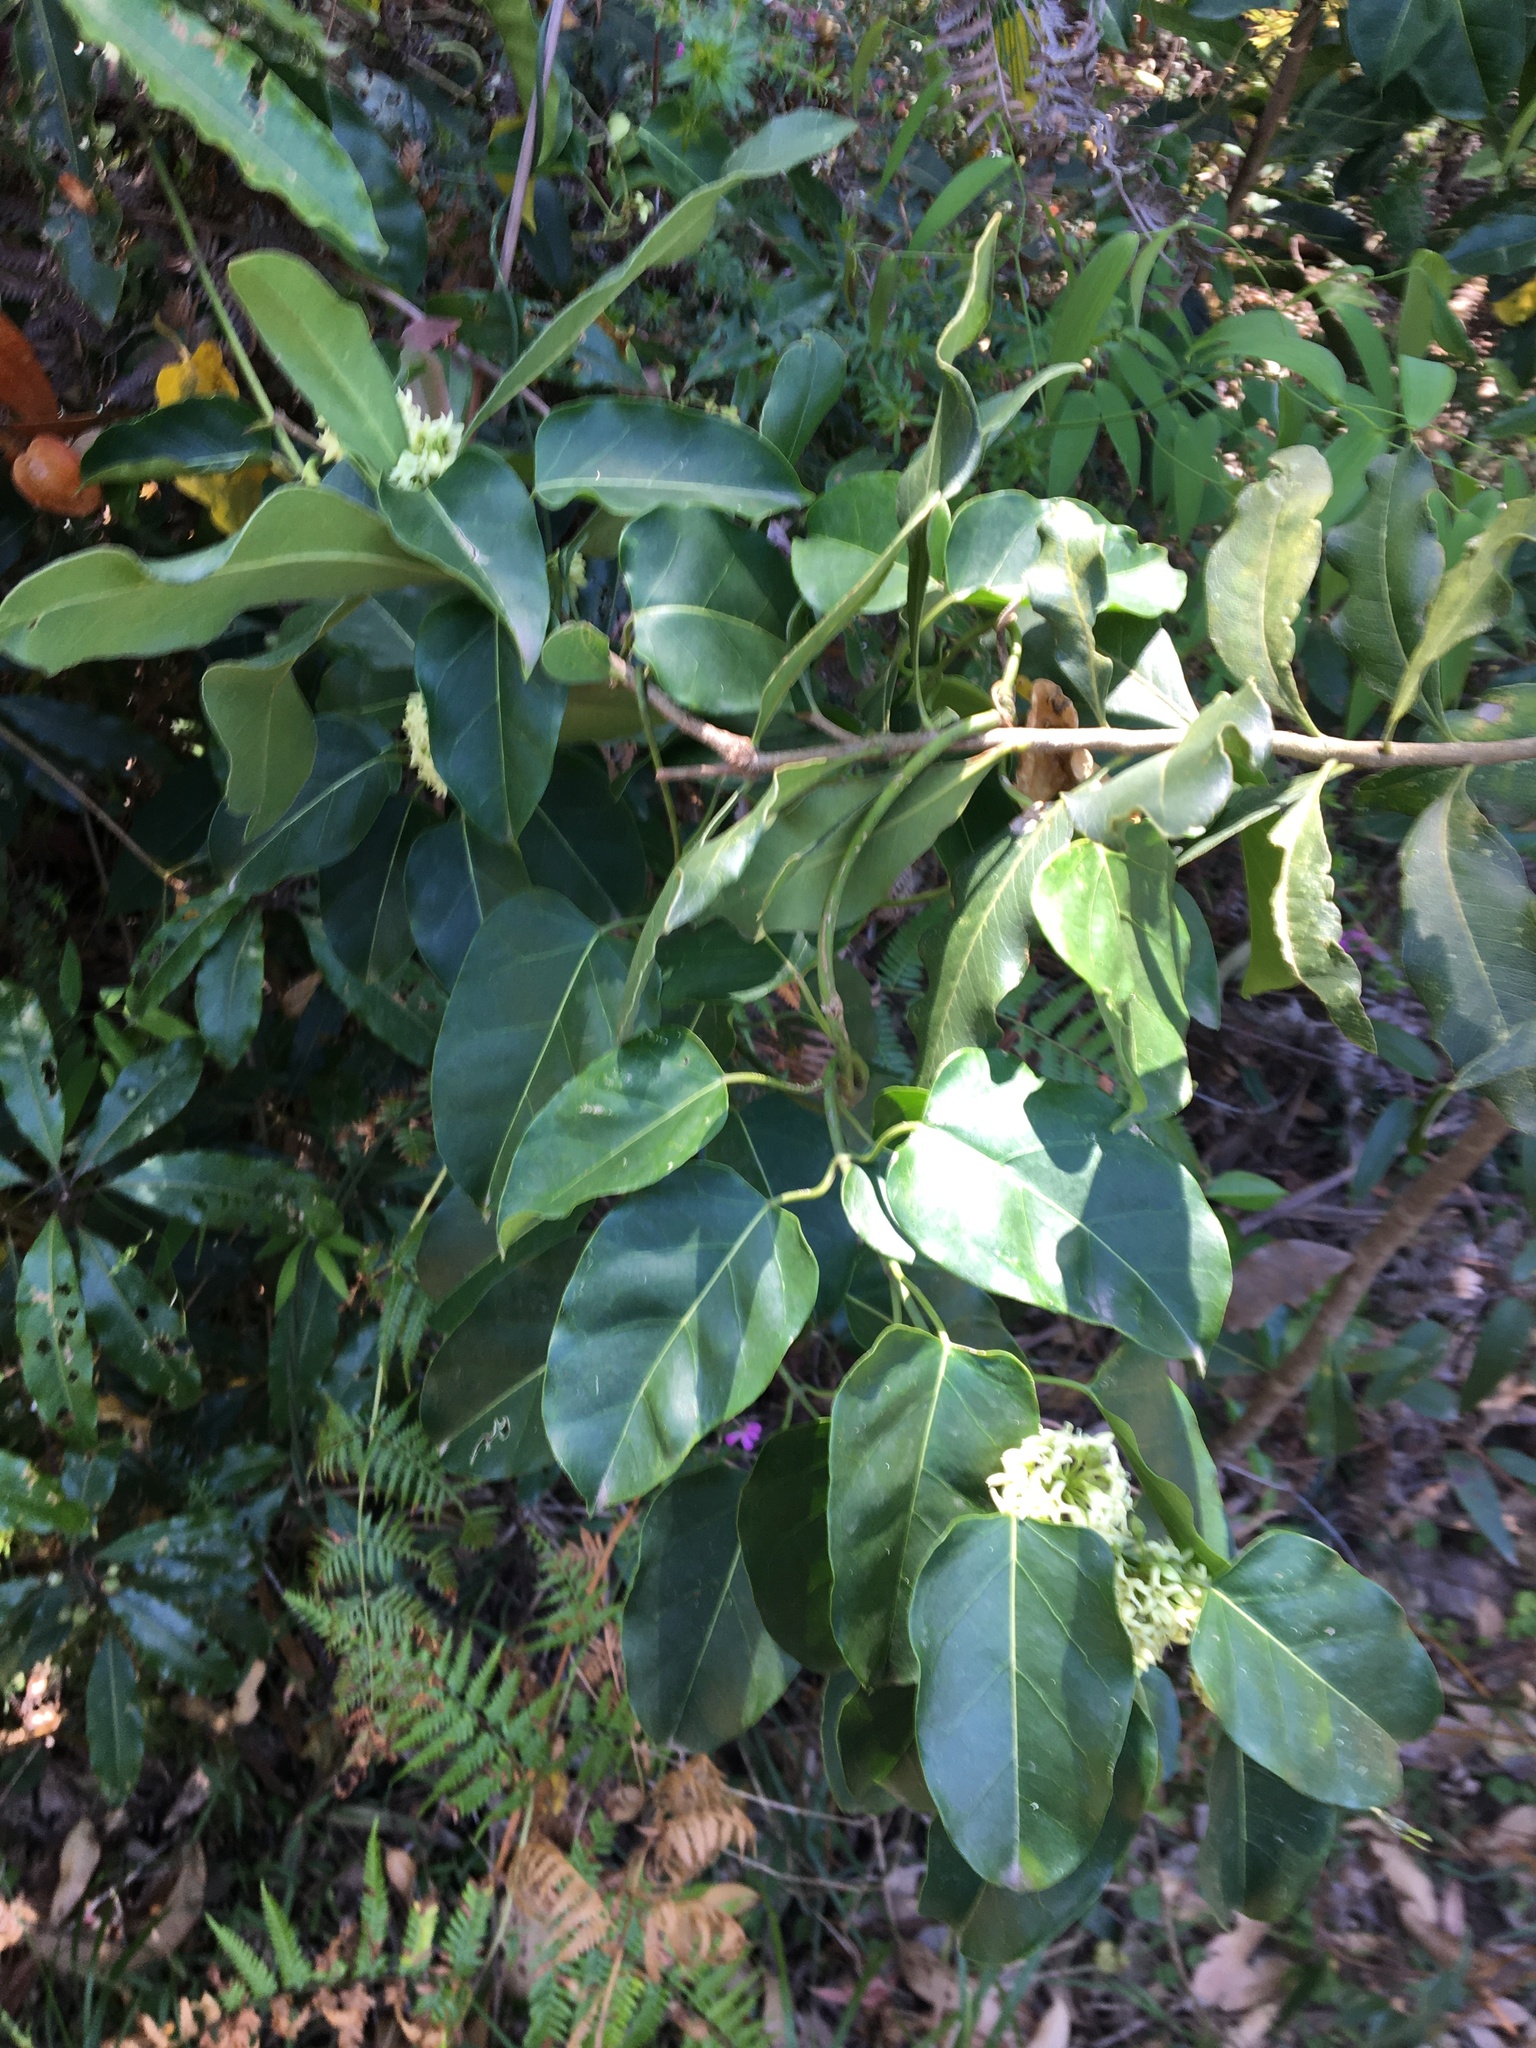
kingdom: Plantae
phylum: Tracheophyta
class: Magnoliopsida
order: Gentianales
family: Apocynaceae
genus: Leichhardtia
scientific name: Leichhardtia rostrata
